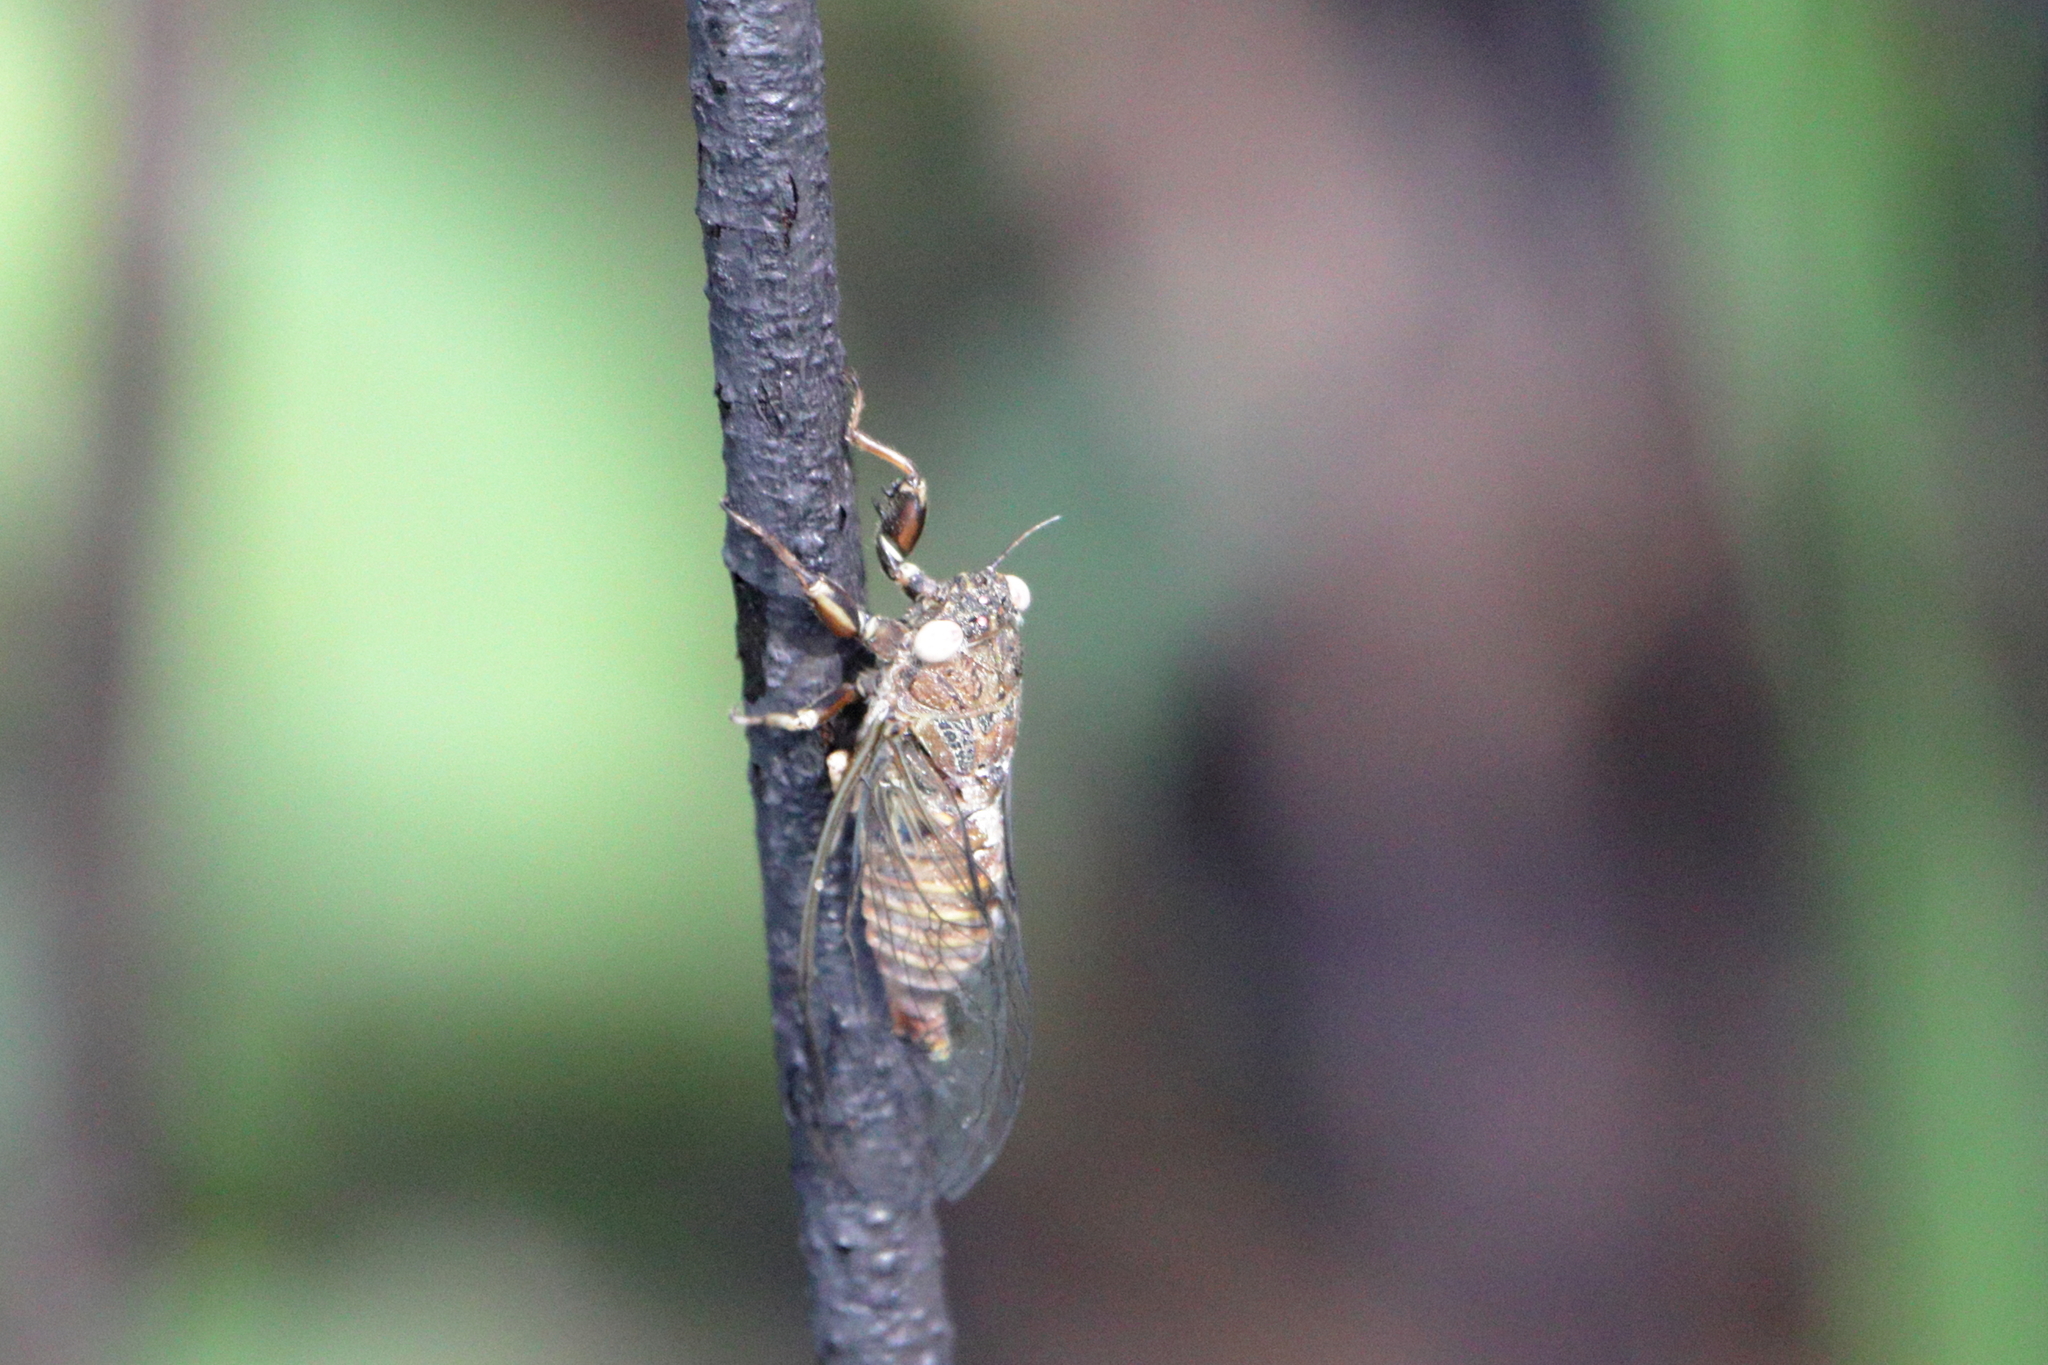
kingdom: Animalia
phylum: Arthropoda
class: Insecta
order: Hemiptera
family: Cicadidae
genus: Cicadettana
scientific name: Cicadettana calliope
